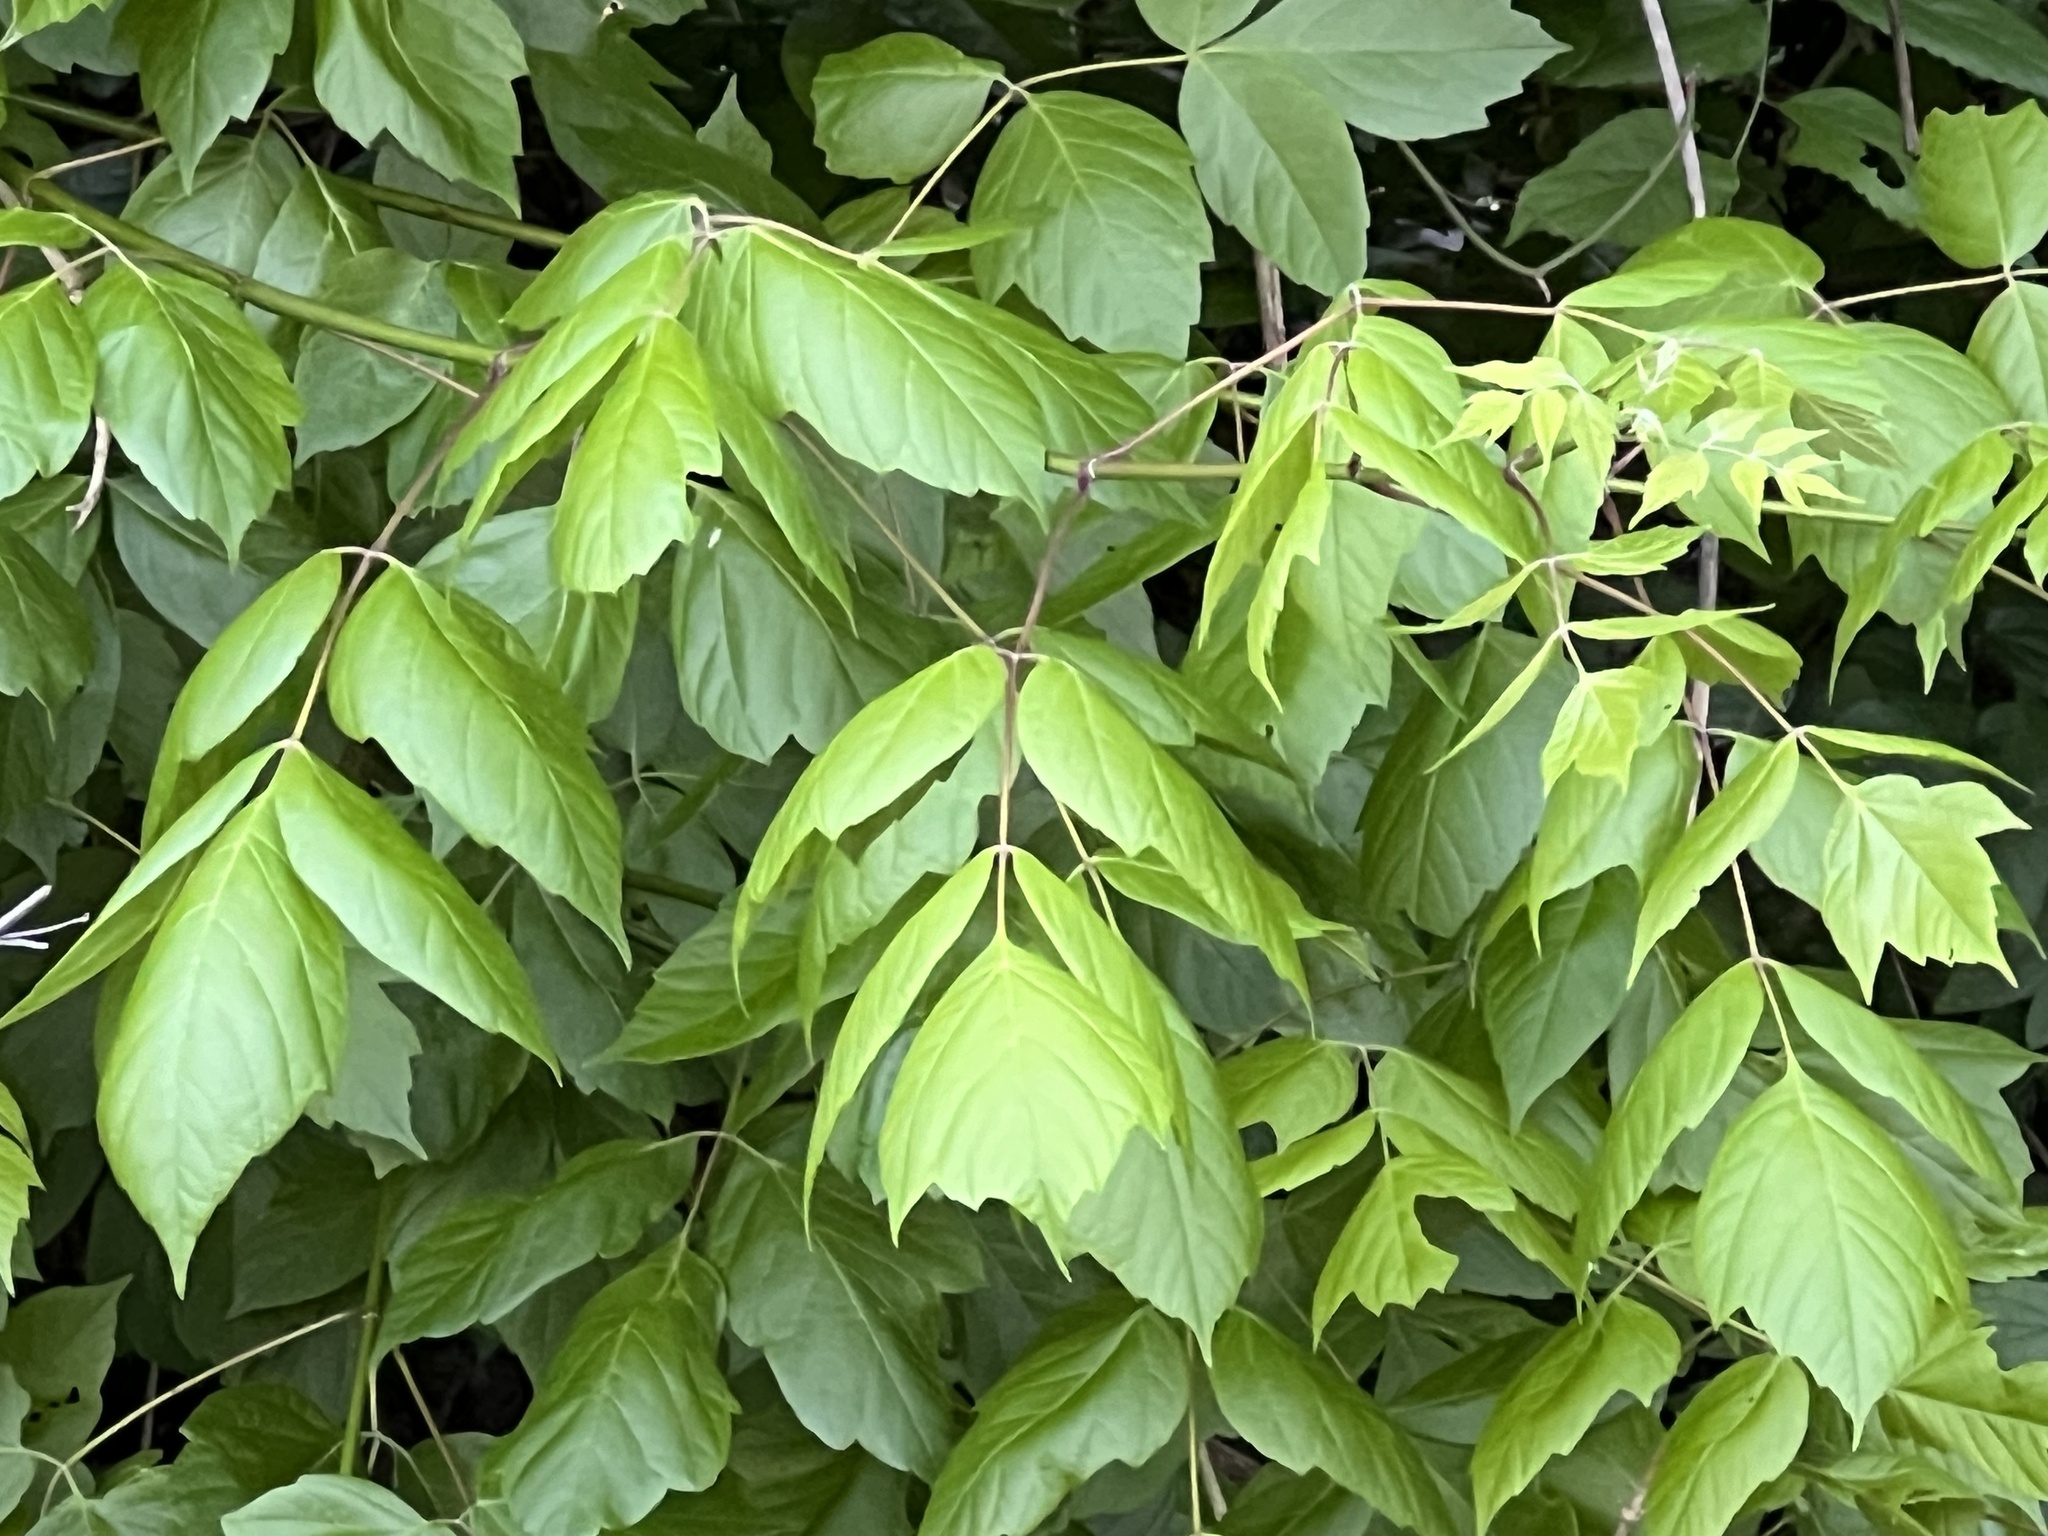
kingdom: Plantae
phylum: Tracheophyta
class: Magnoliopsida
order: Sapindales
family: Sapindaceae
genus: Acer
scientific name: Acer negundo
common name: Ashleaf maple
